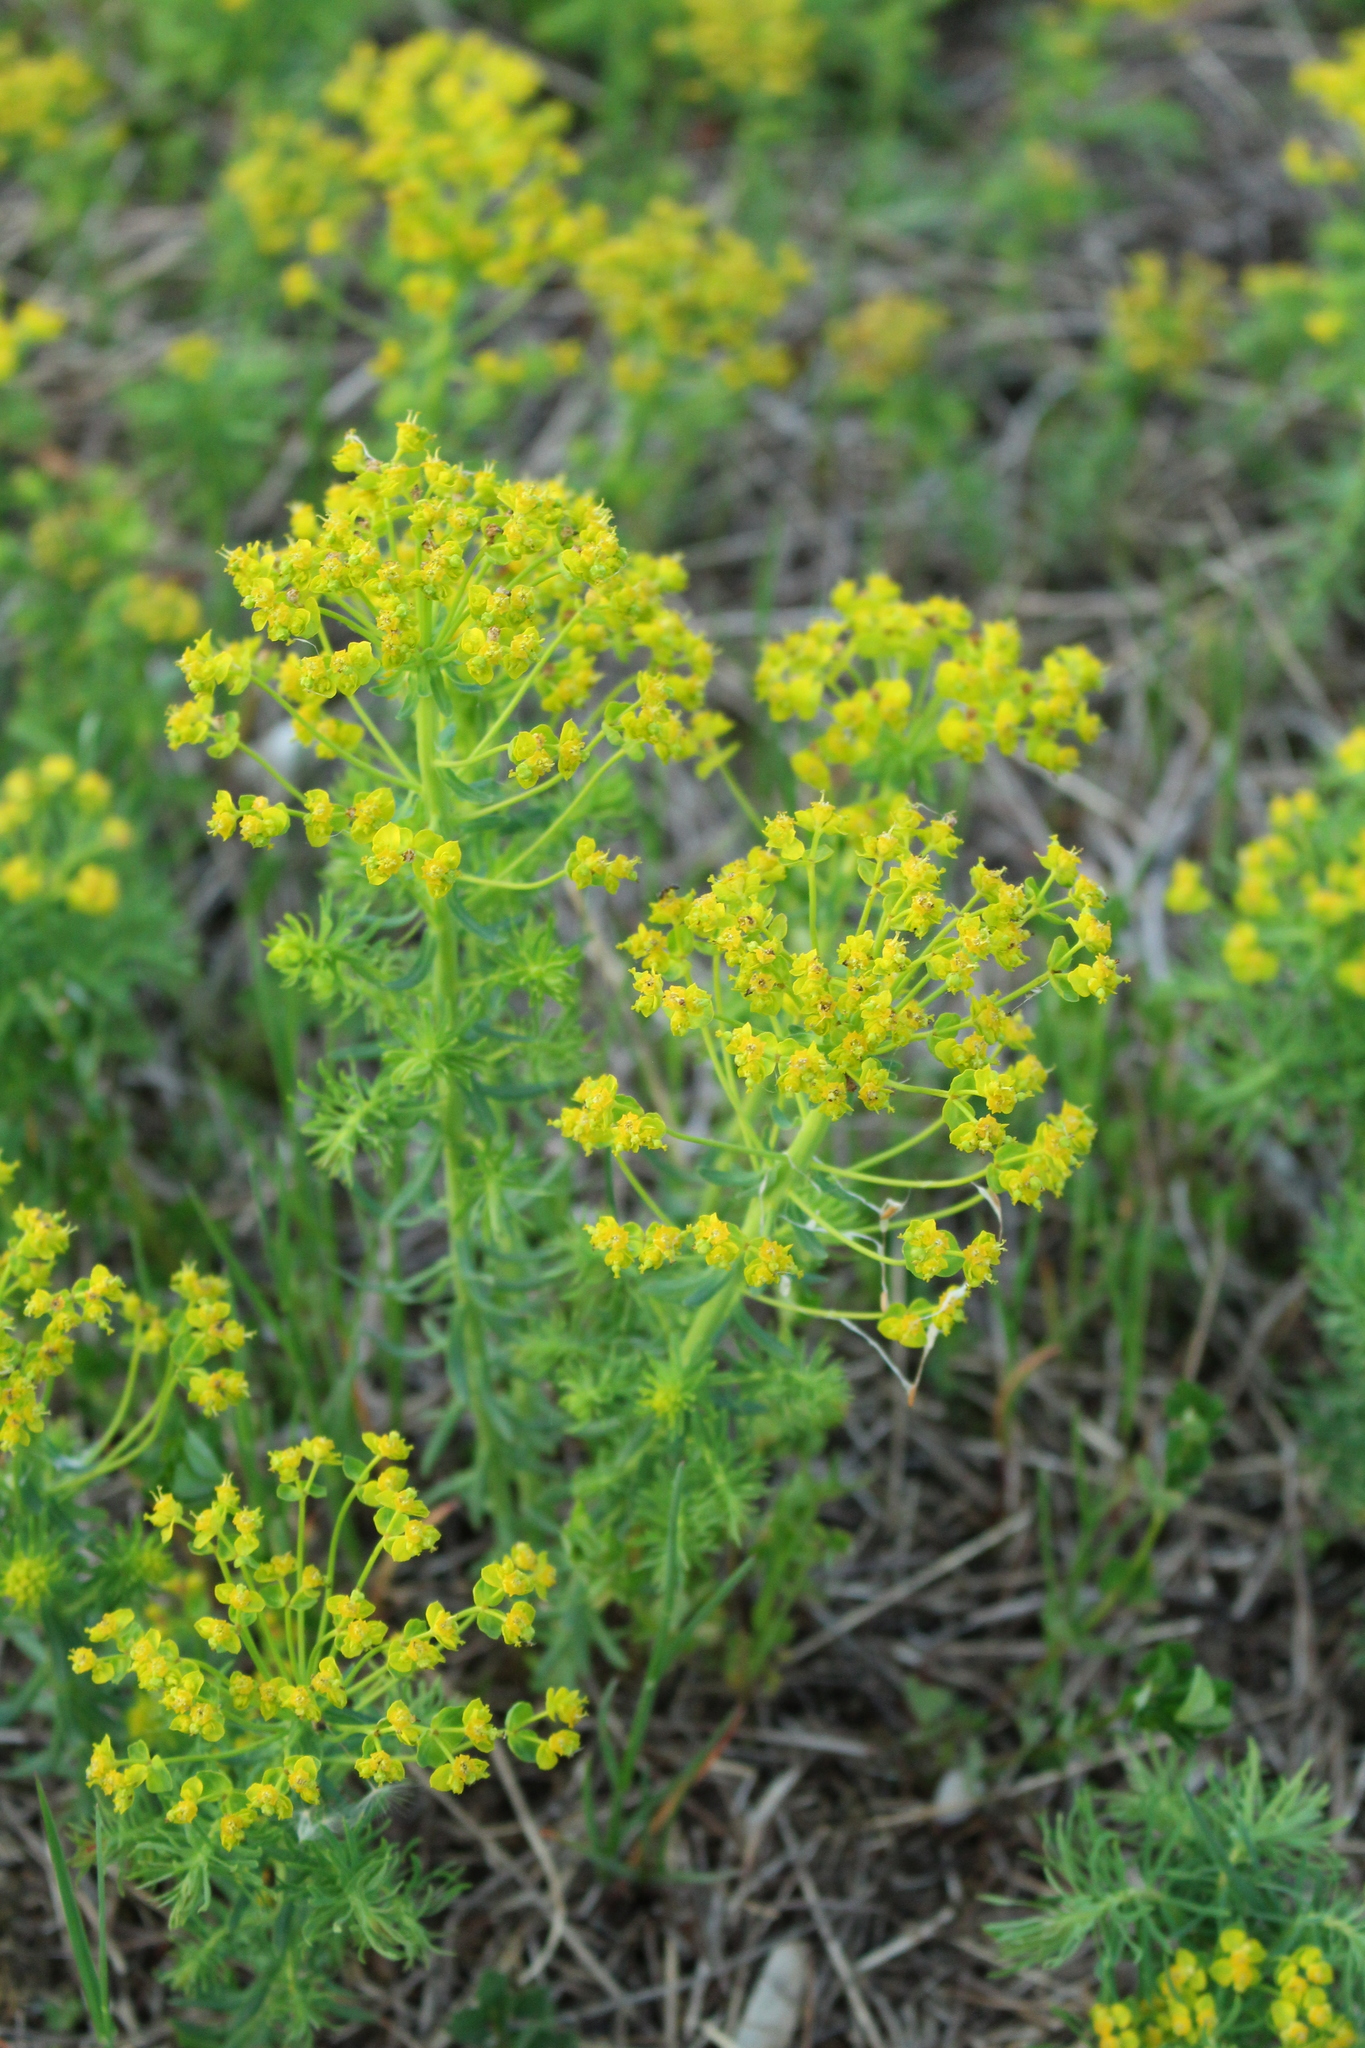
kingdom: Plantae
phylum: Tracheophyta
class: Magnoliopsida
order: Malpighiales
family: Euphorbiaceae
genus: Euphorbia
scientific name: Euphorbia cyparissias
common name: Cypress spurge
